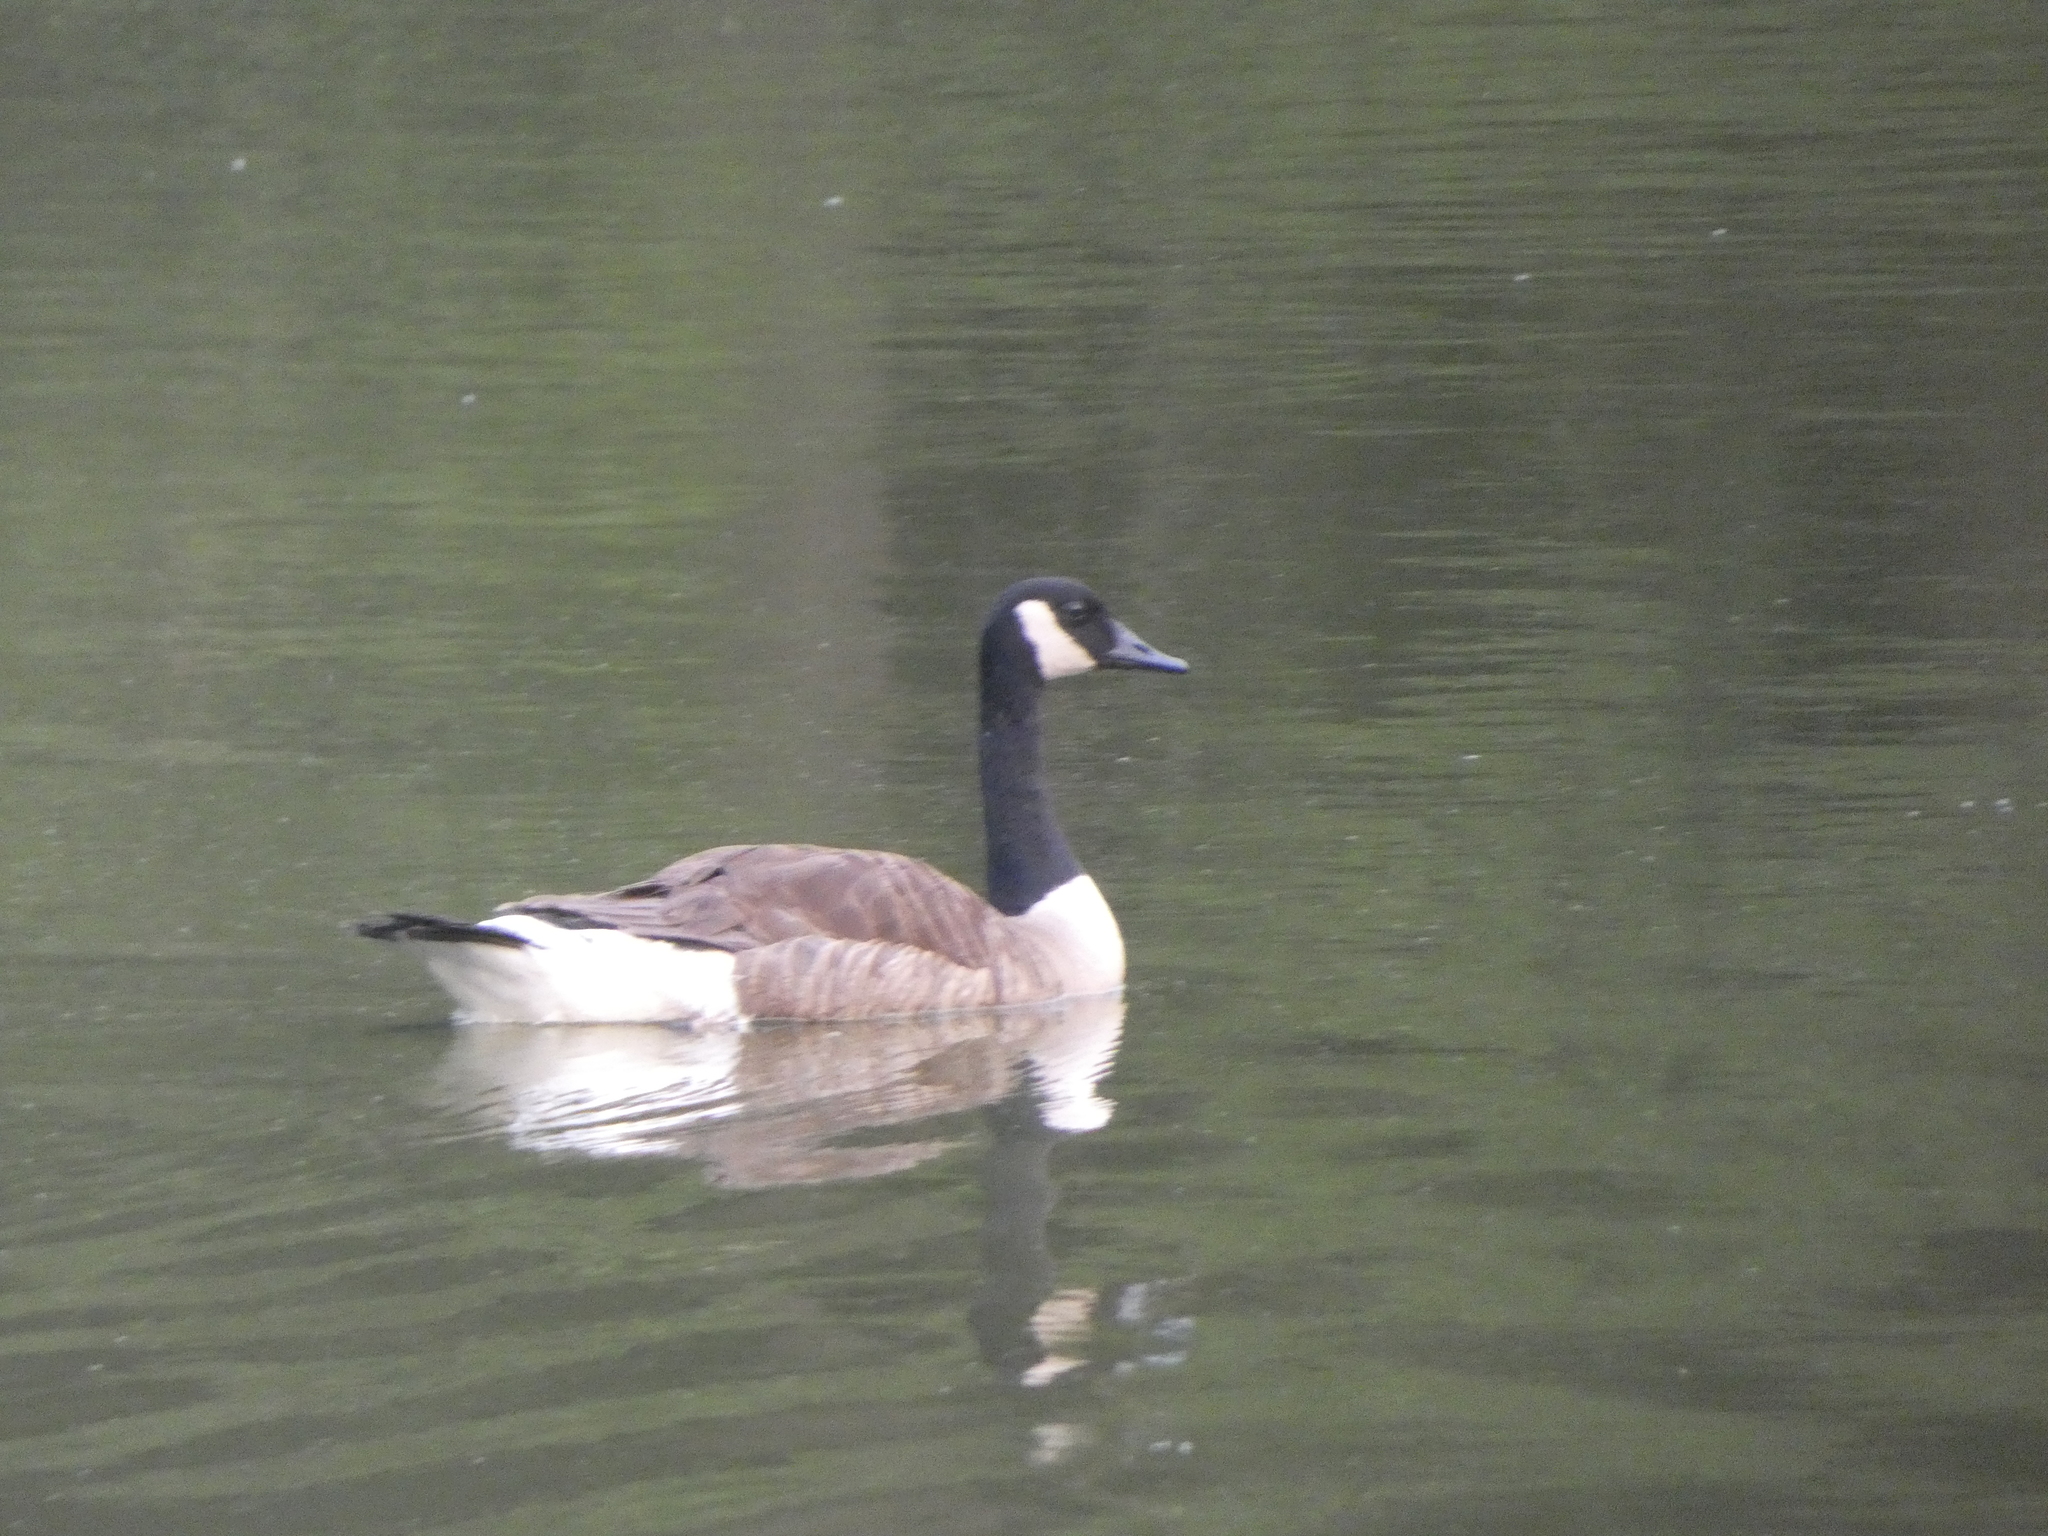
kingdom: Animalia
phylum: Chordata
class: Aves
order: Anseriformes
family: Anatidae
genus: Branta
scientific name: Branta canadensis
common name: Canada goose
